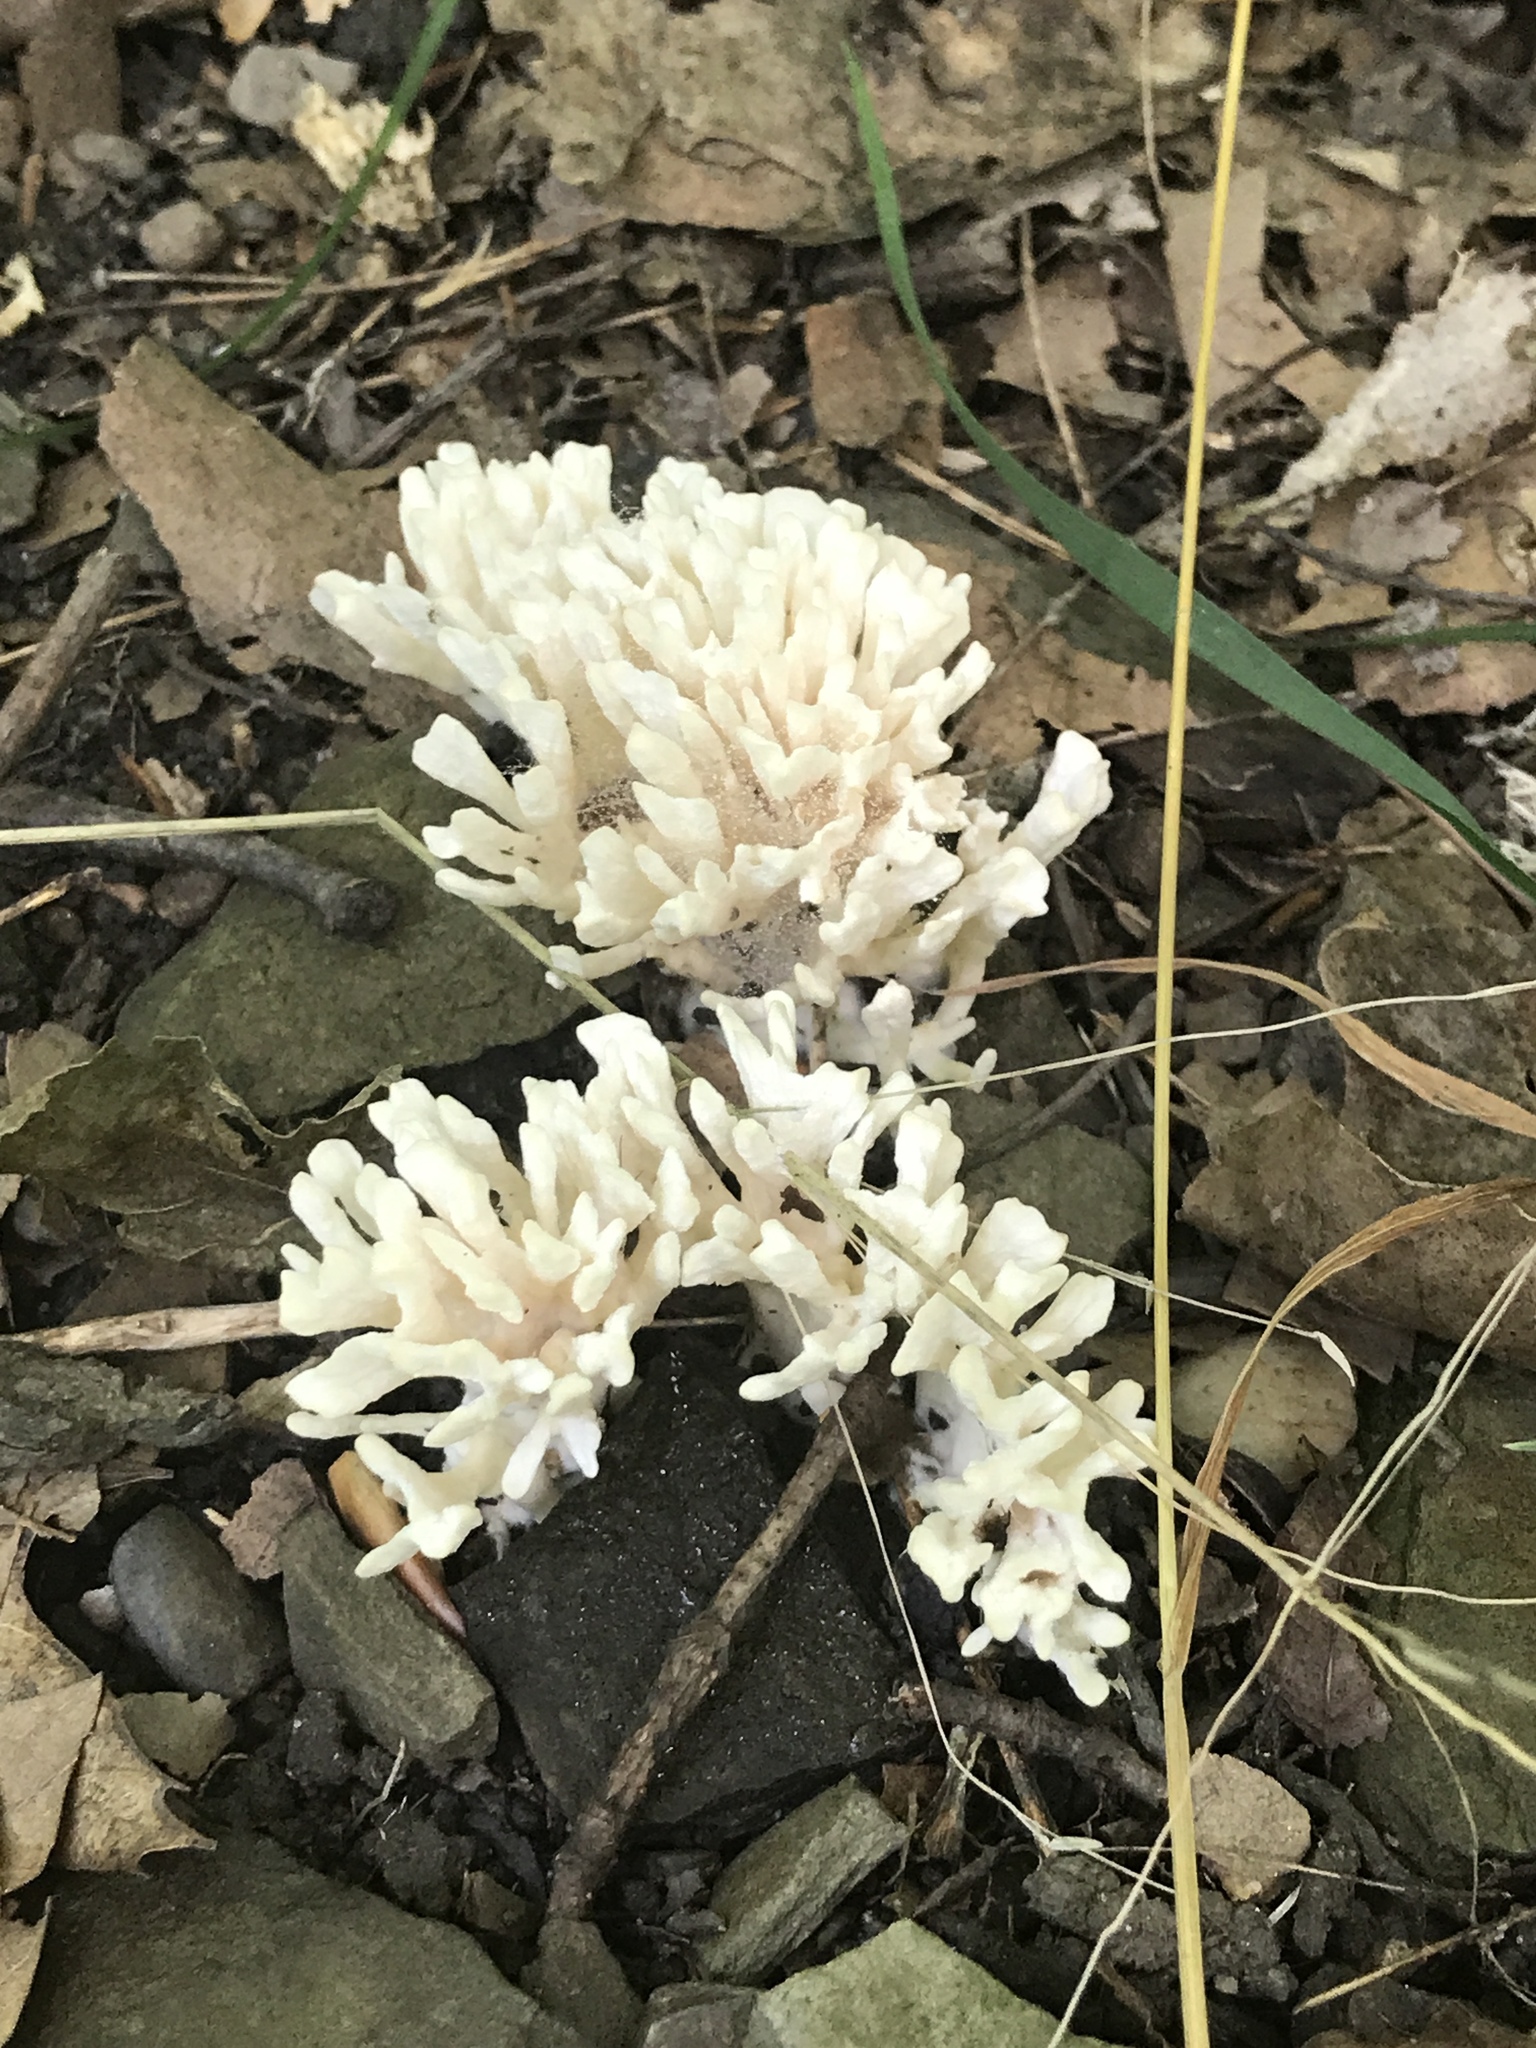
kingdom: Fungi
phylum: Basidiomycota
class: Agaricomycetes
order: Sebacinales
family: Sebacinaceae
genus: Sebacina
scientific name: Sebacina schweinitzii
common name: Jellied false coral fungus
